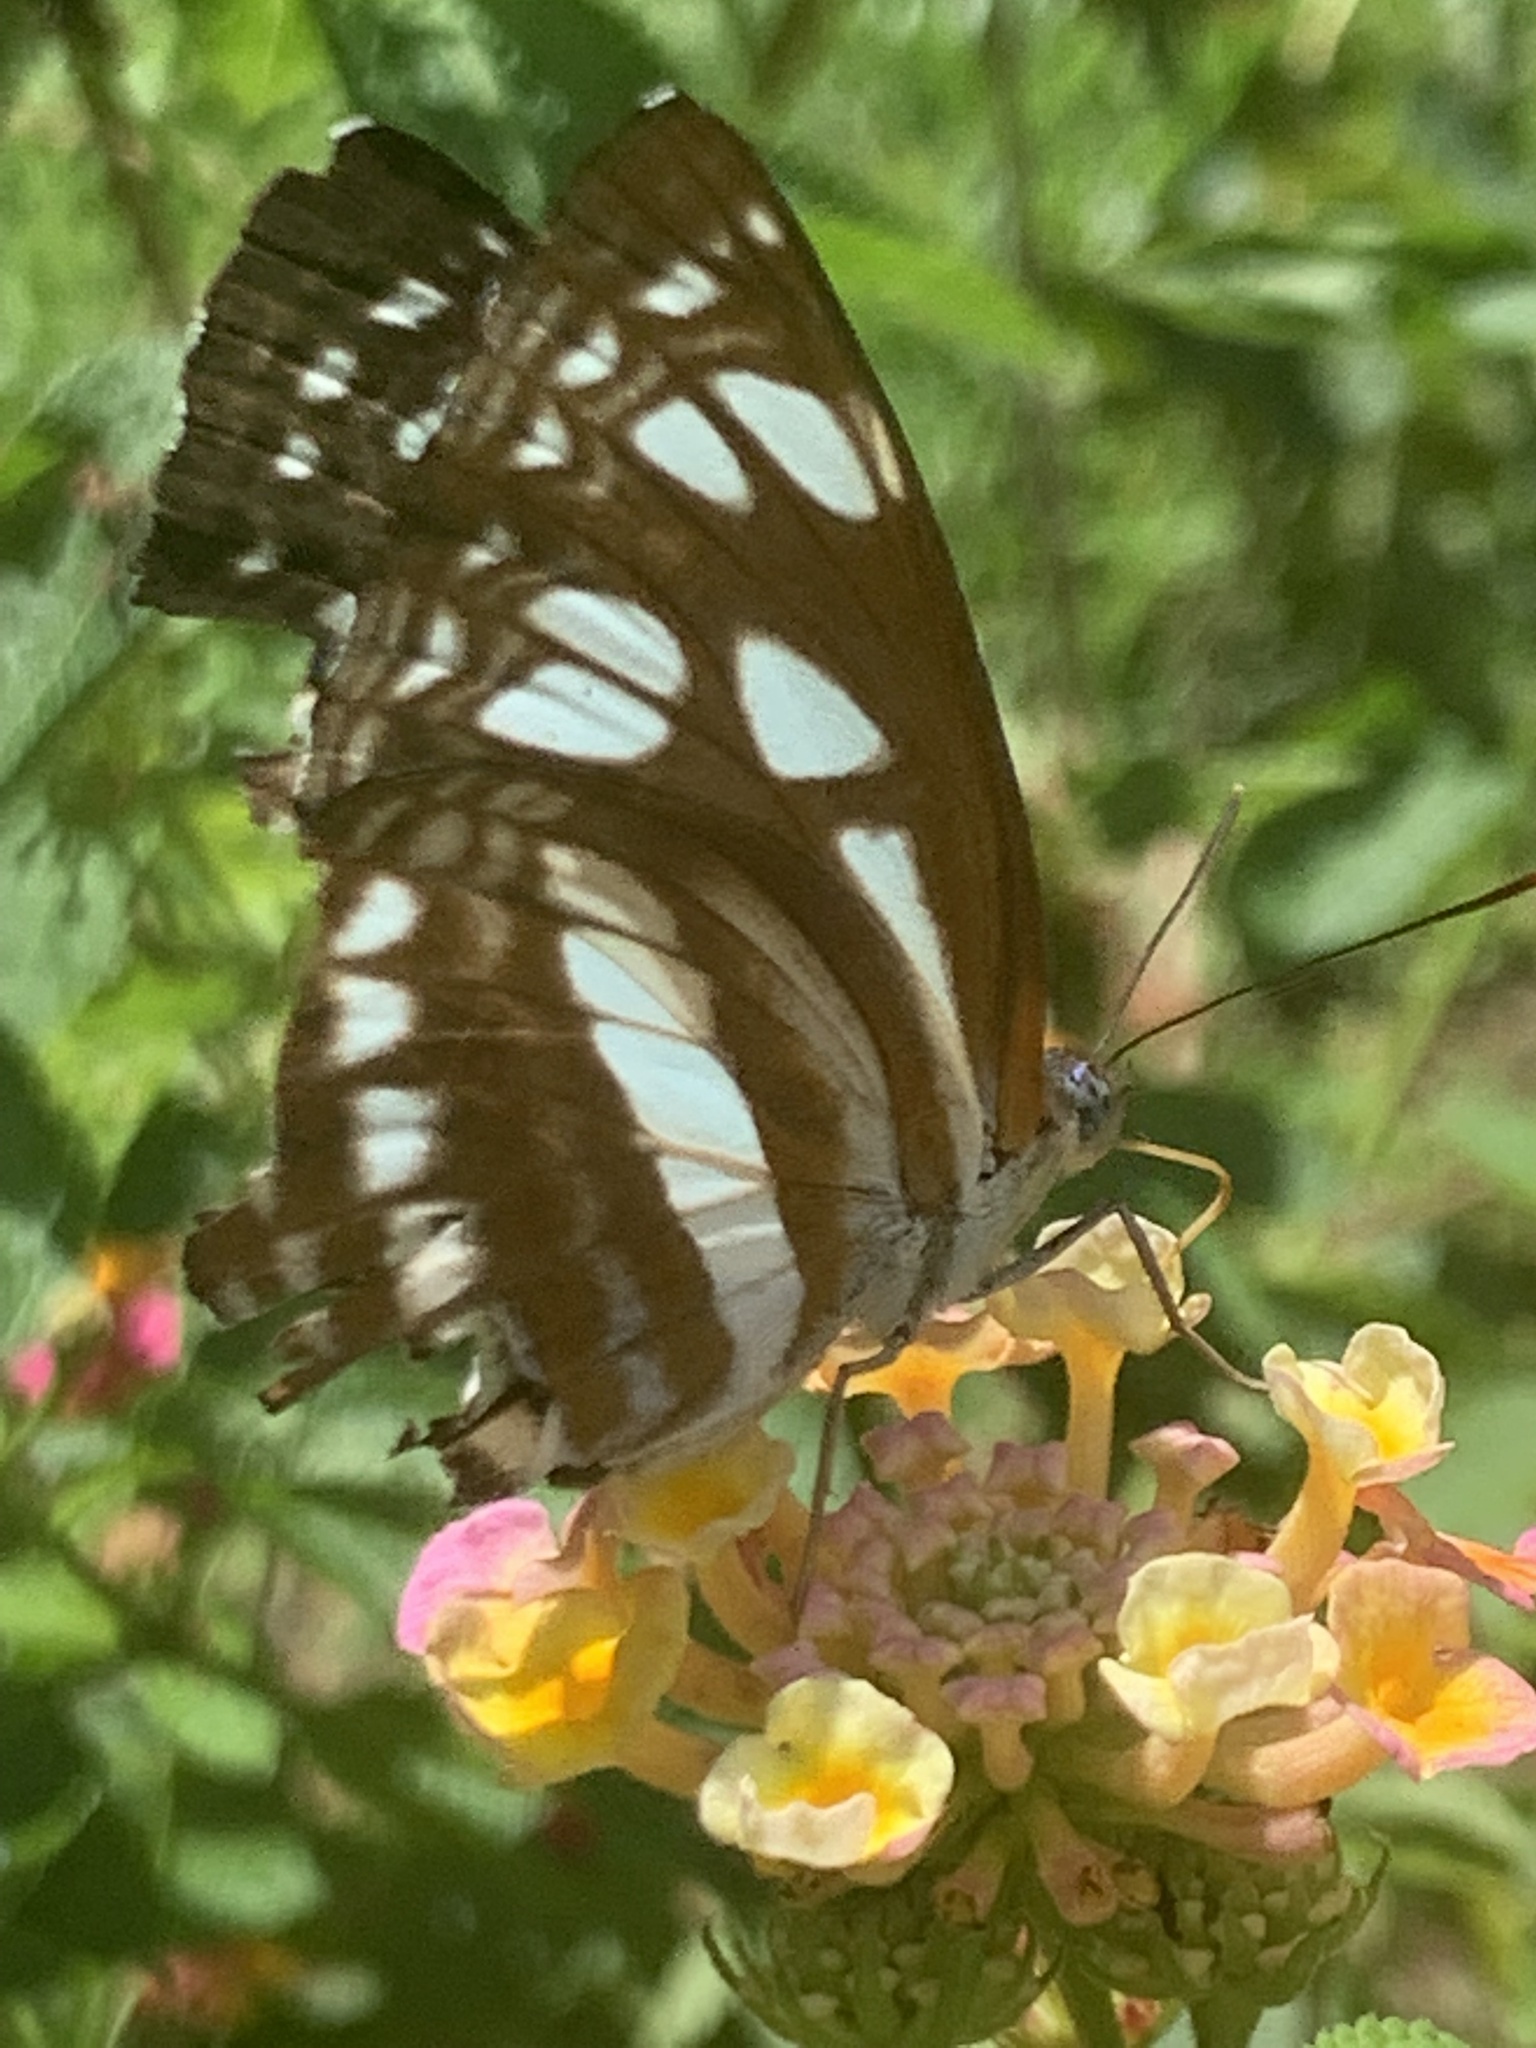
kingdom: Animalia
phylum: Arthropoda
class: Insecta
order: Lepidoptera
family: Nymphalidae
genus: Phaedyma
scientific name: Phaedyma columella
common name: Short banded sailer
